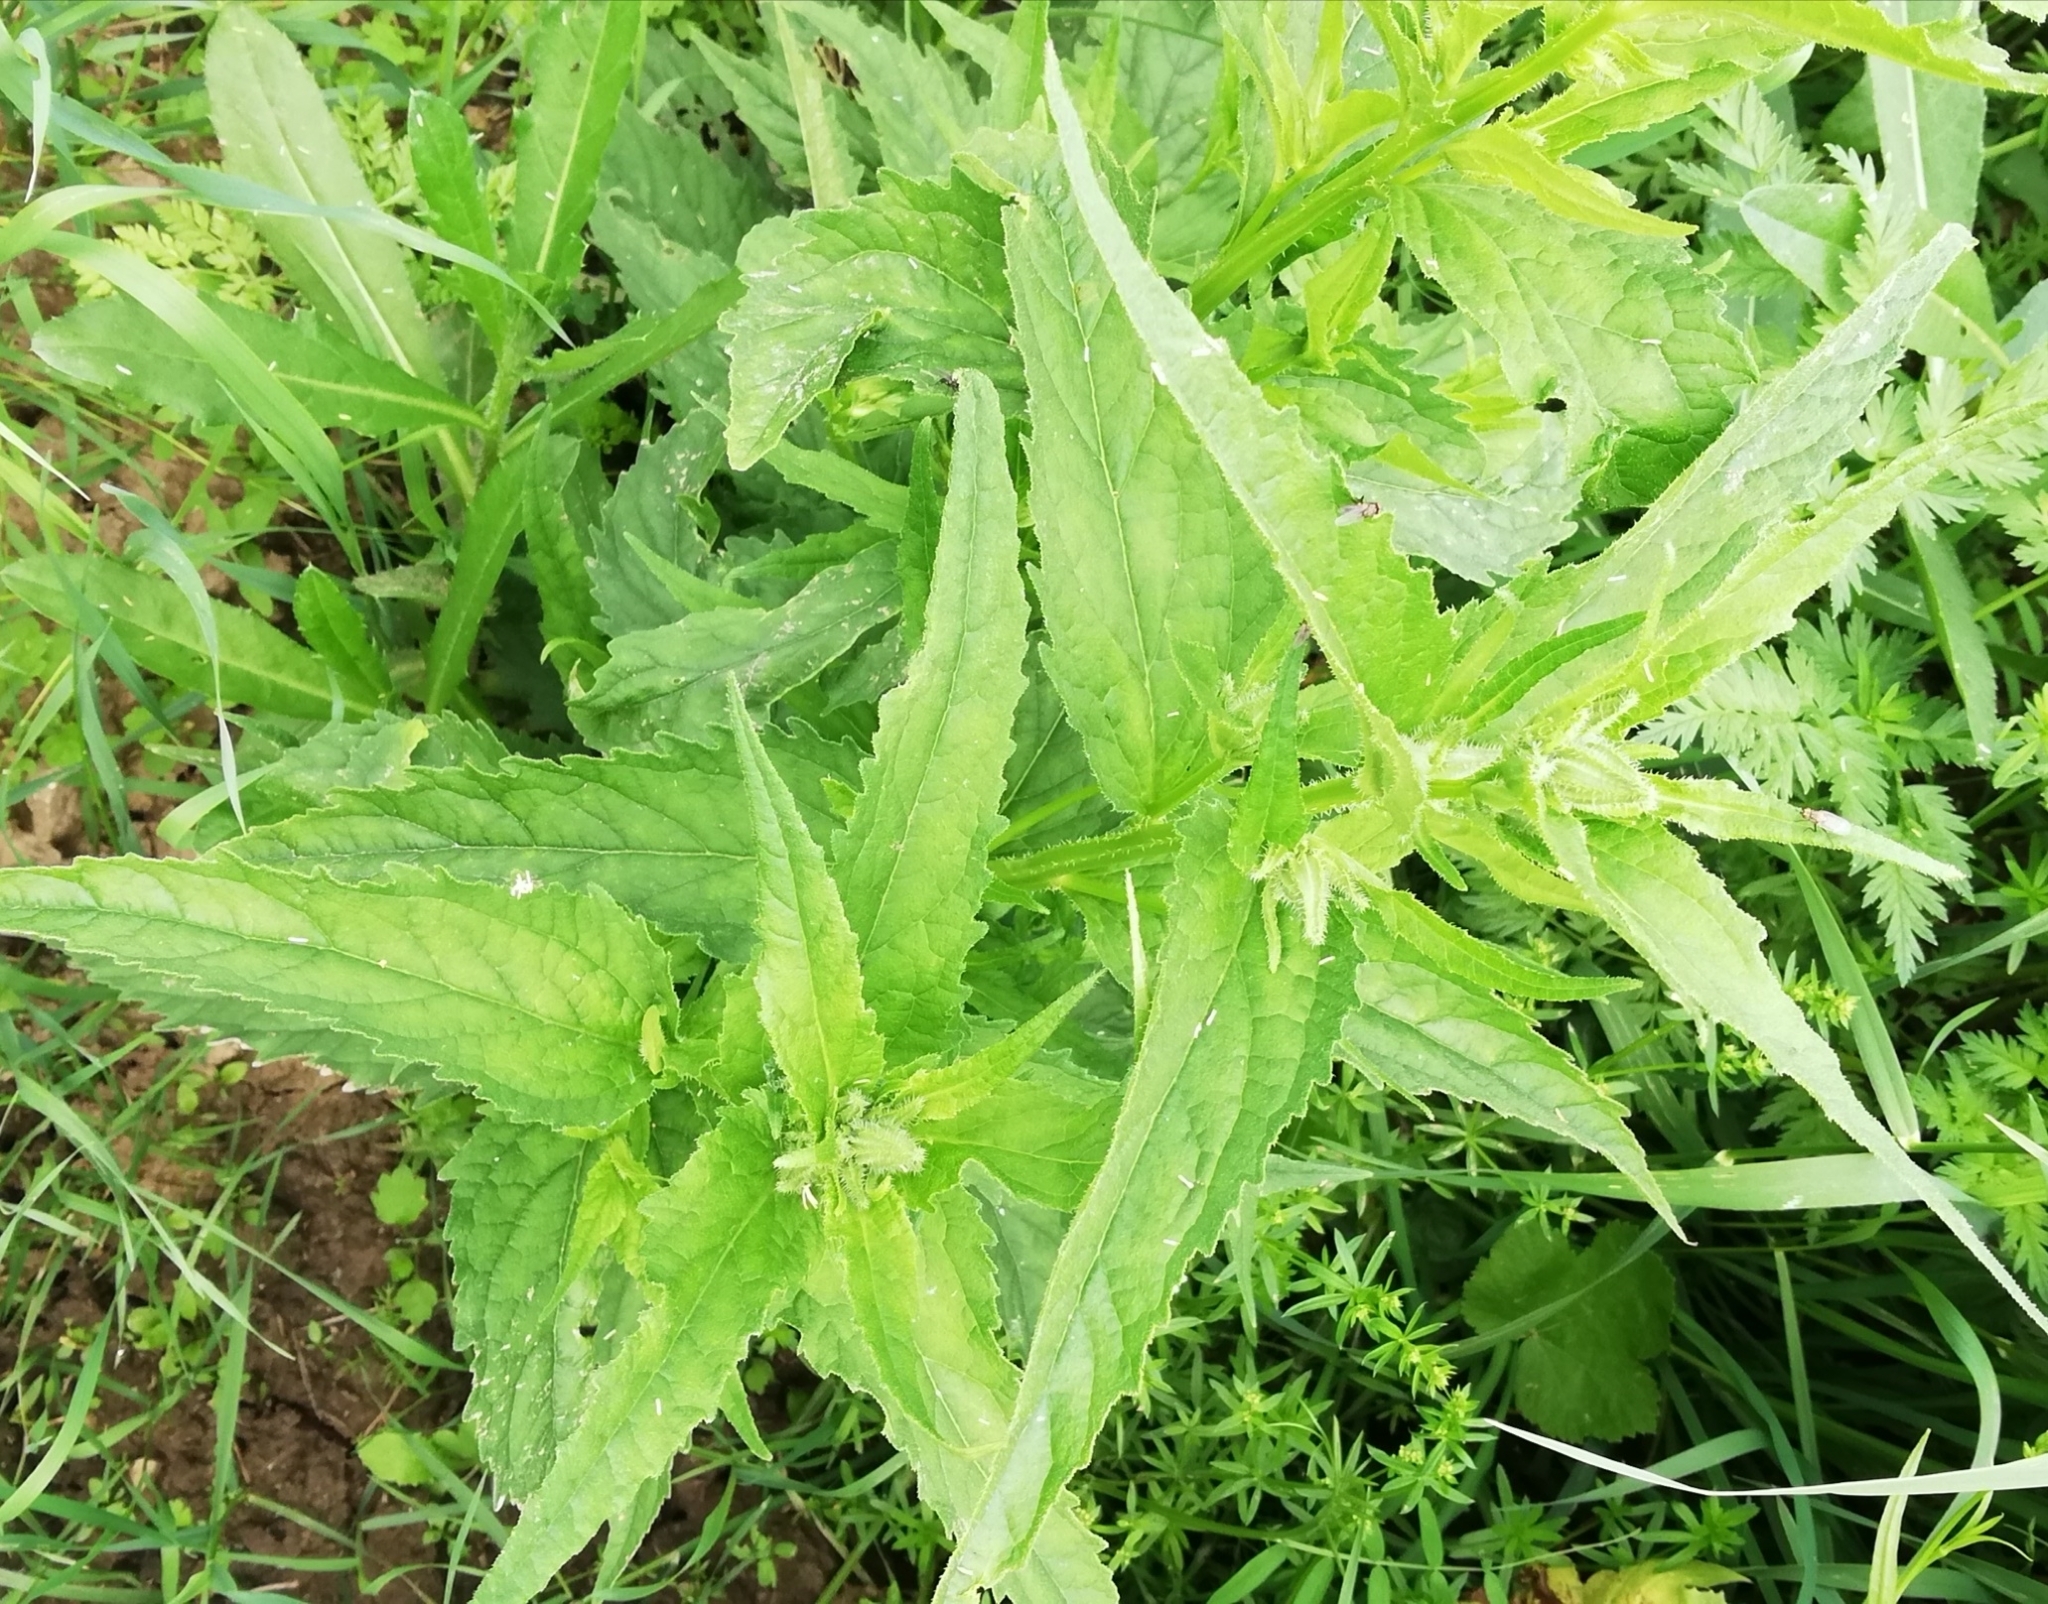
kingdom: Plantae
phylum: Tracheophyta
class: Magnoliopsida
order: Asterales
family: Campanulaceae
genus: Campanula
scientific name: Campanula trachelium
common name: Nettle-leaved bellflower
